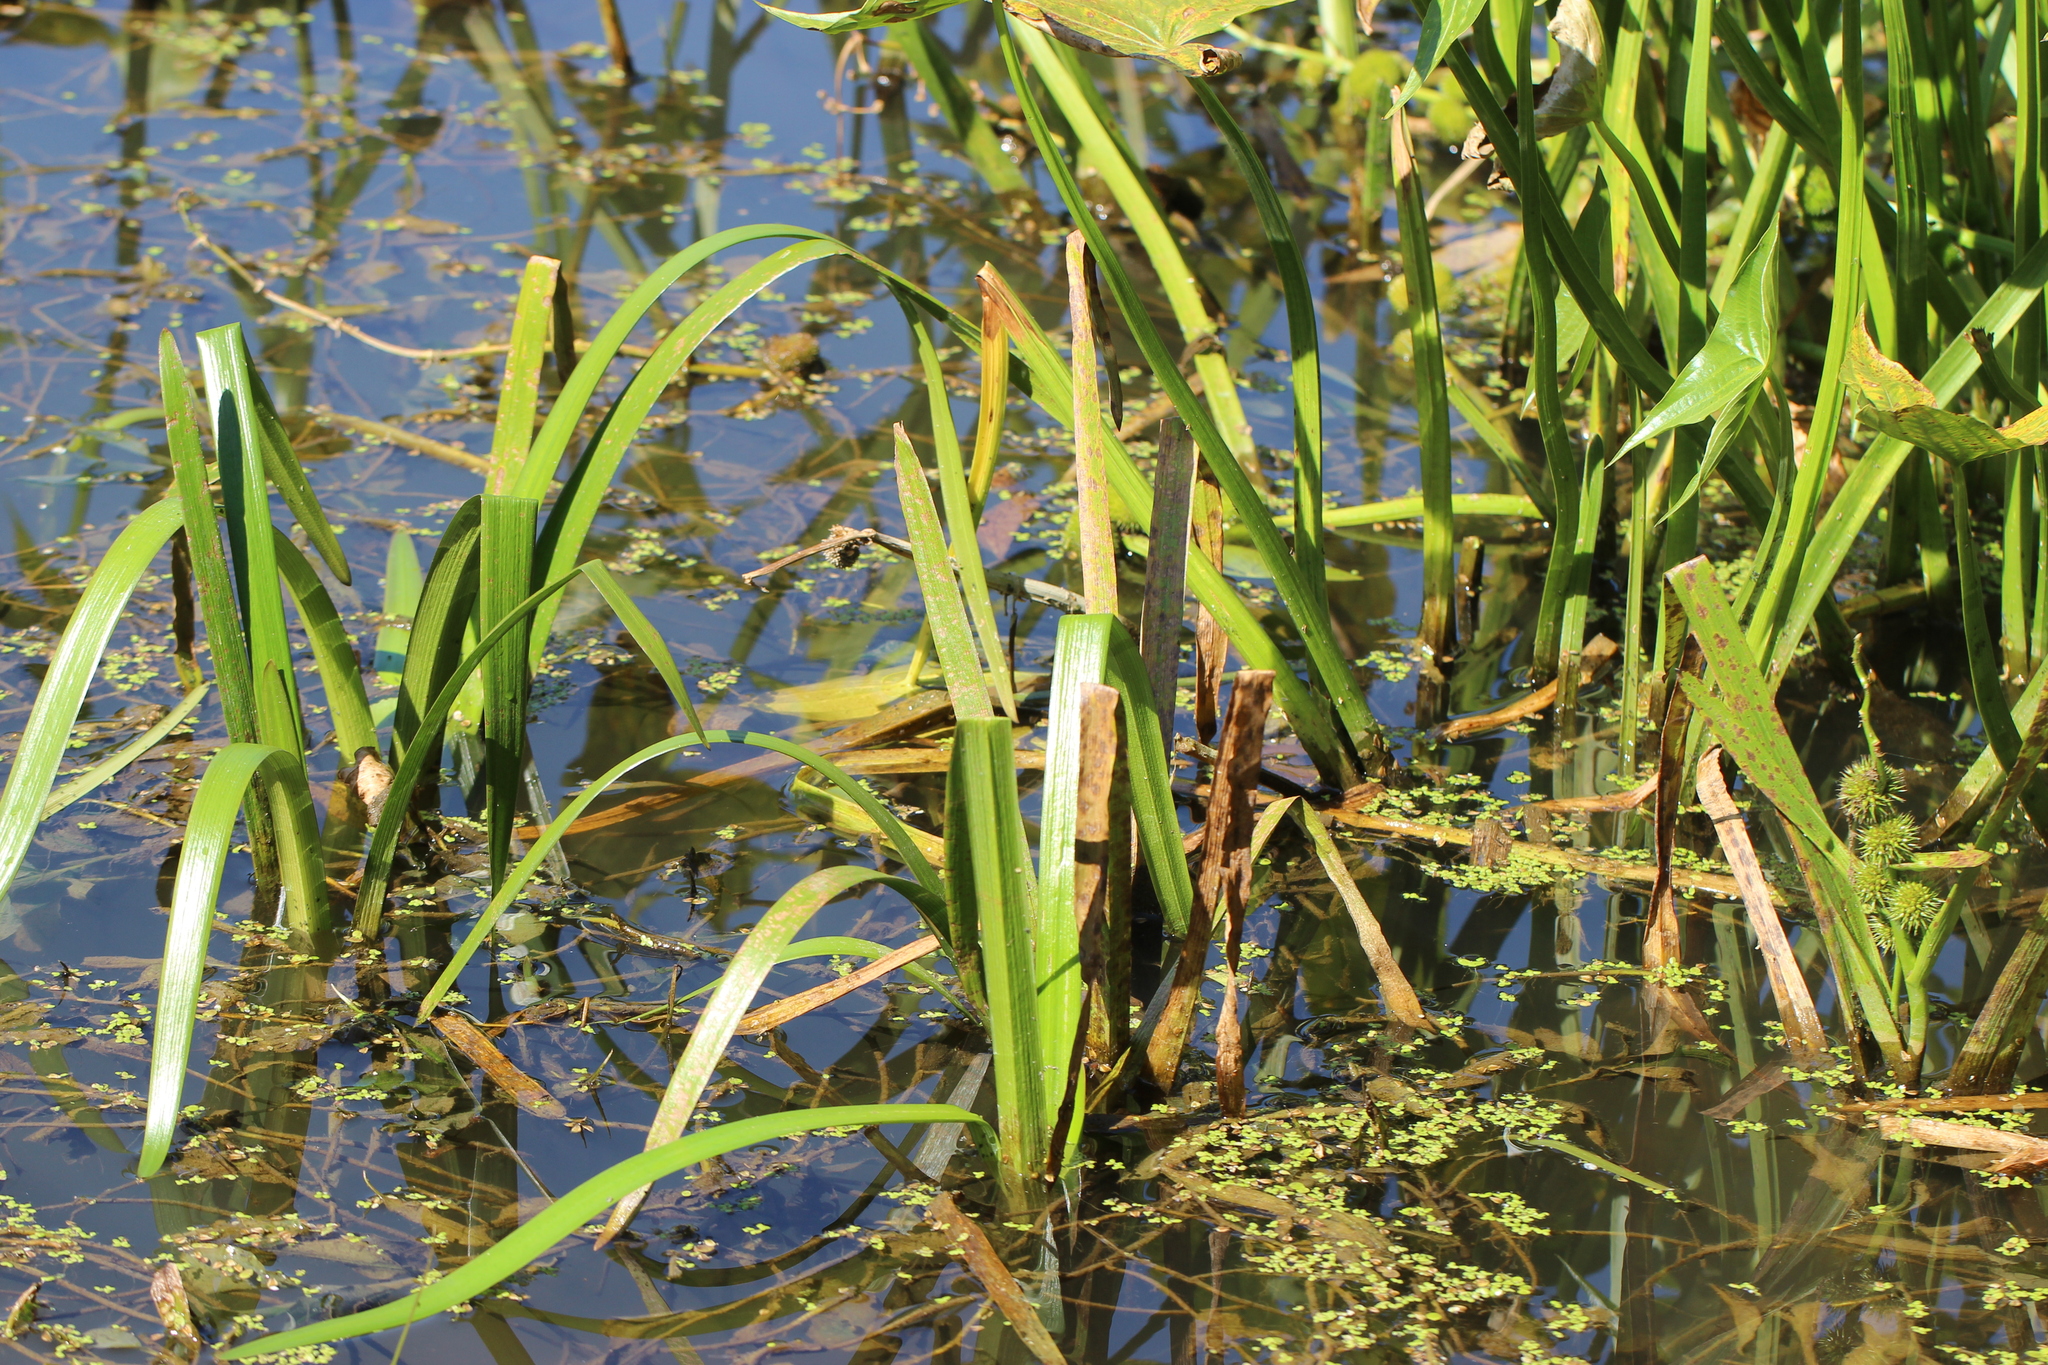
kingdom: Plantae
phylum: Tracheophyta
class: Liliopsida
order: Poales
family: Typhaceae
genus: Sparganium
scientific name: Sparganium emersum
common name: Unbranched bur-reed
